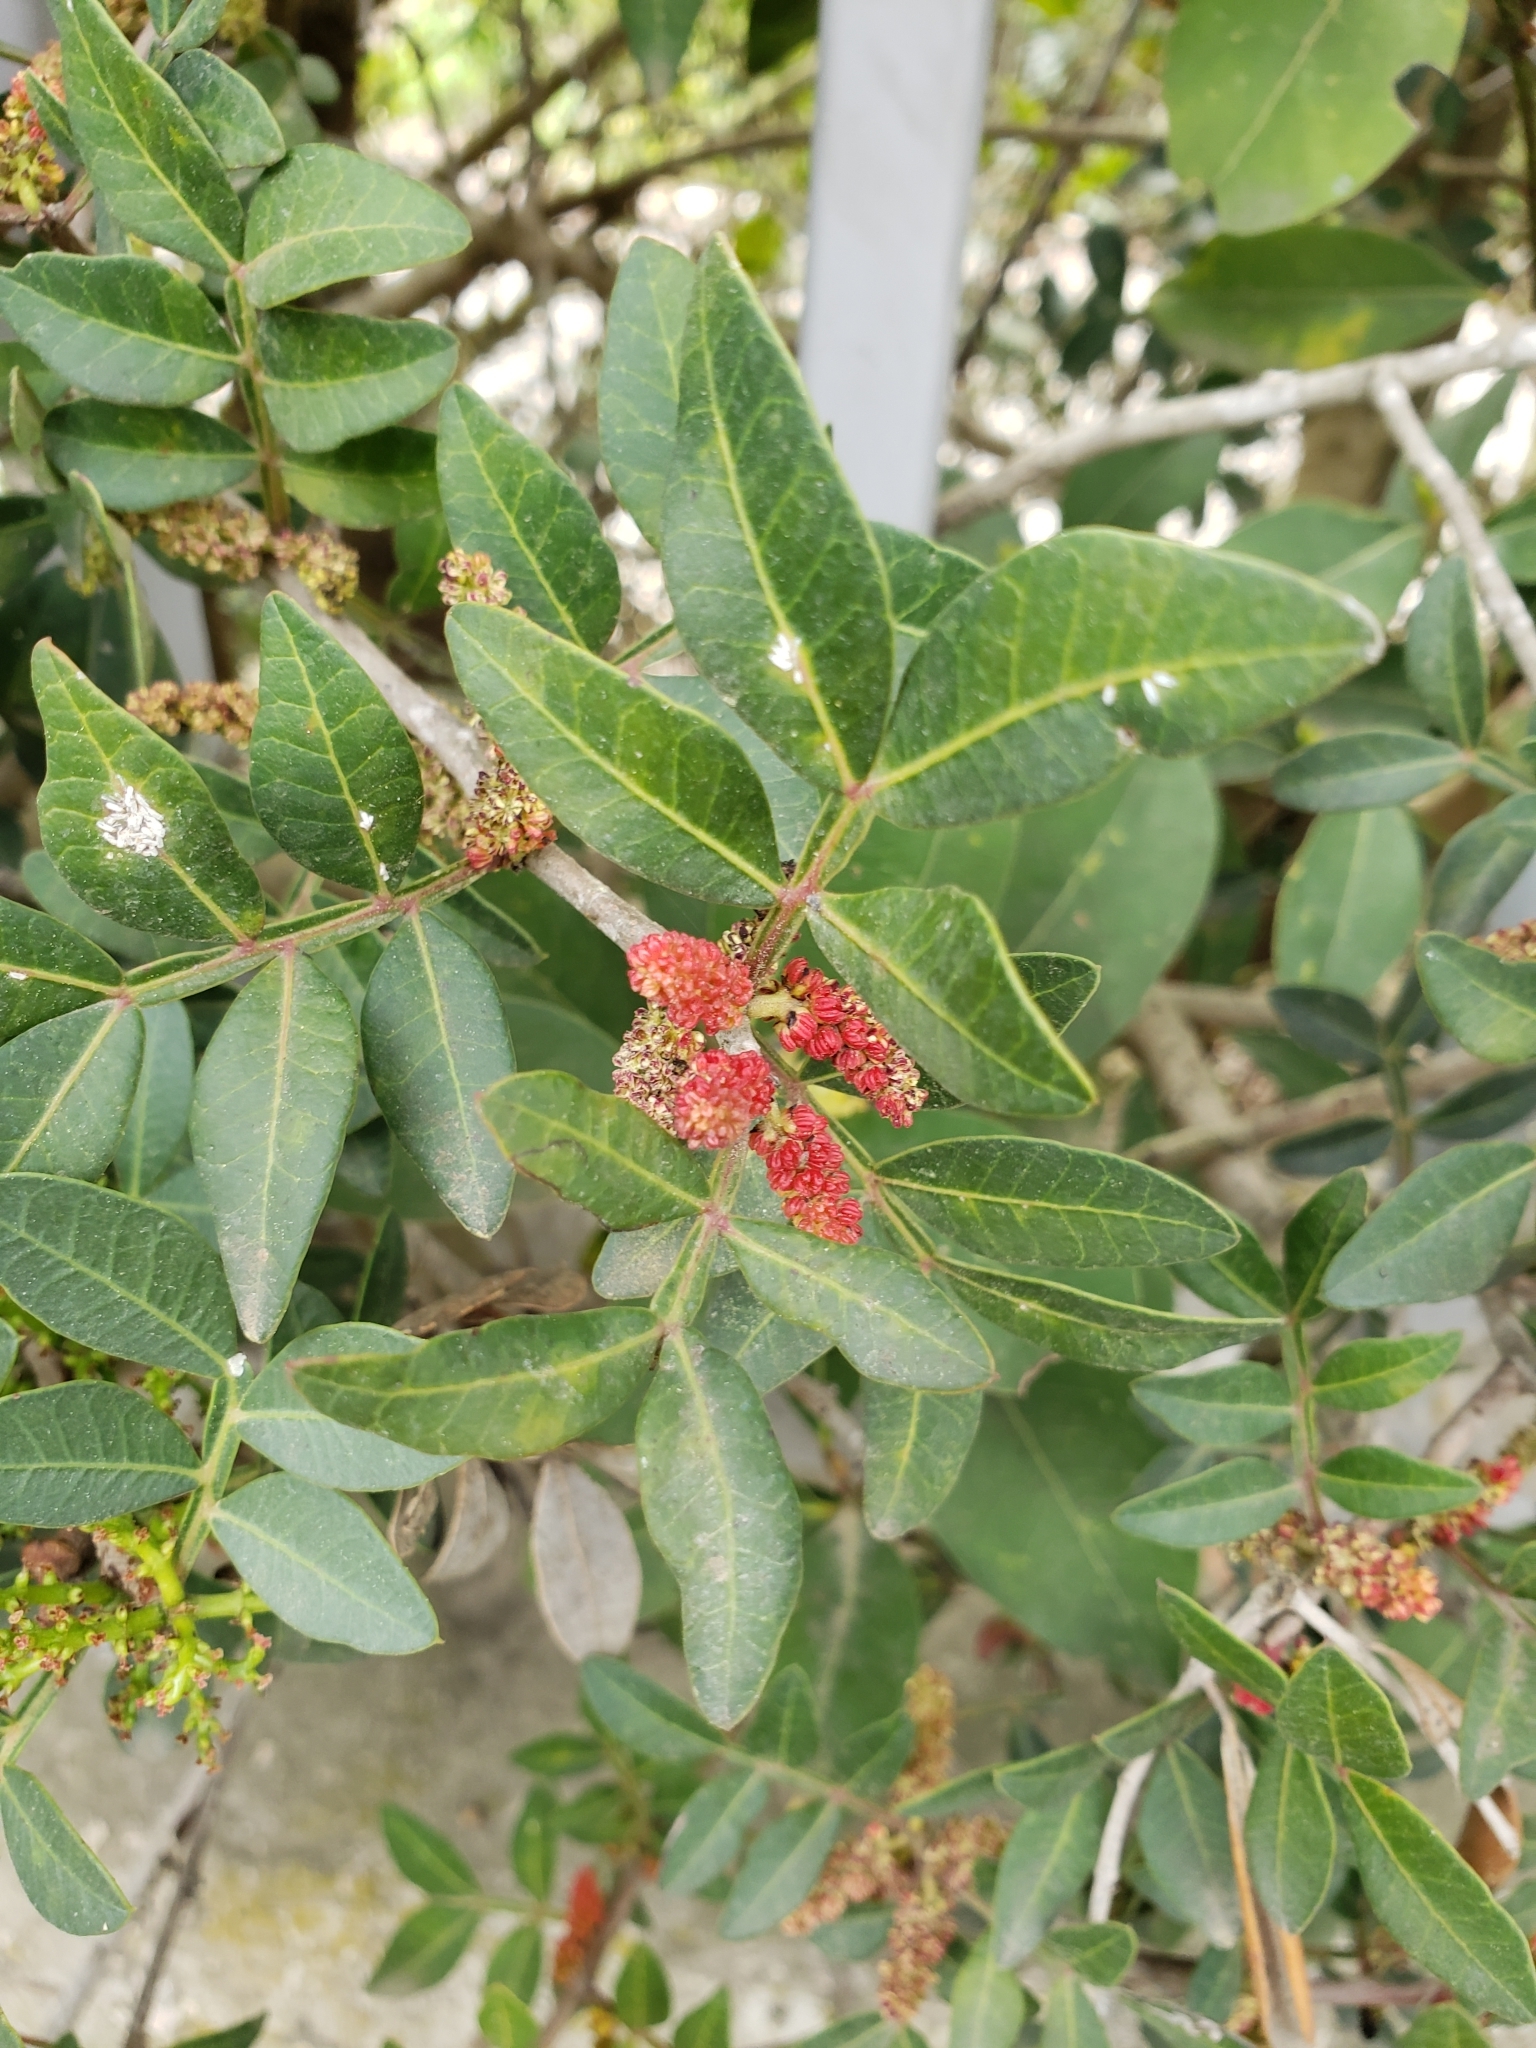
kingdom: Plantae
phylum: Tracheophyta
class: Magnoliopsida
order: Sapindales
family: Anacardiaceae
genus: Pistacia
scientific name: Pistacia lentiscus
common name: Lentisk
